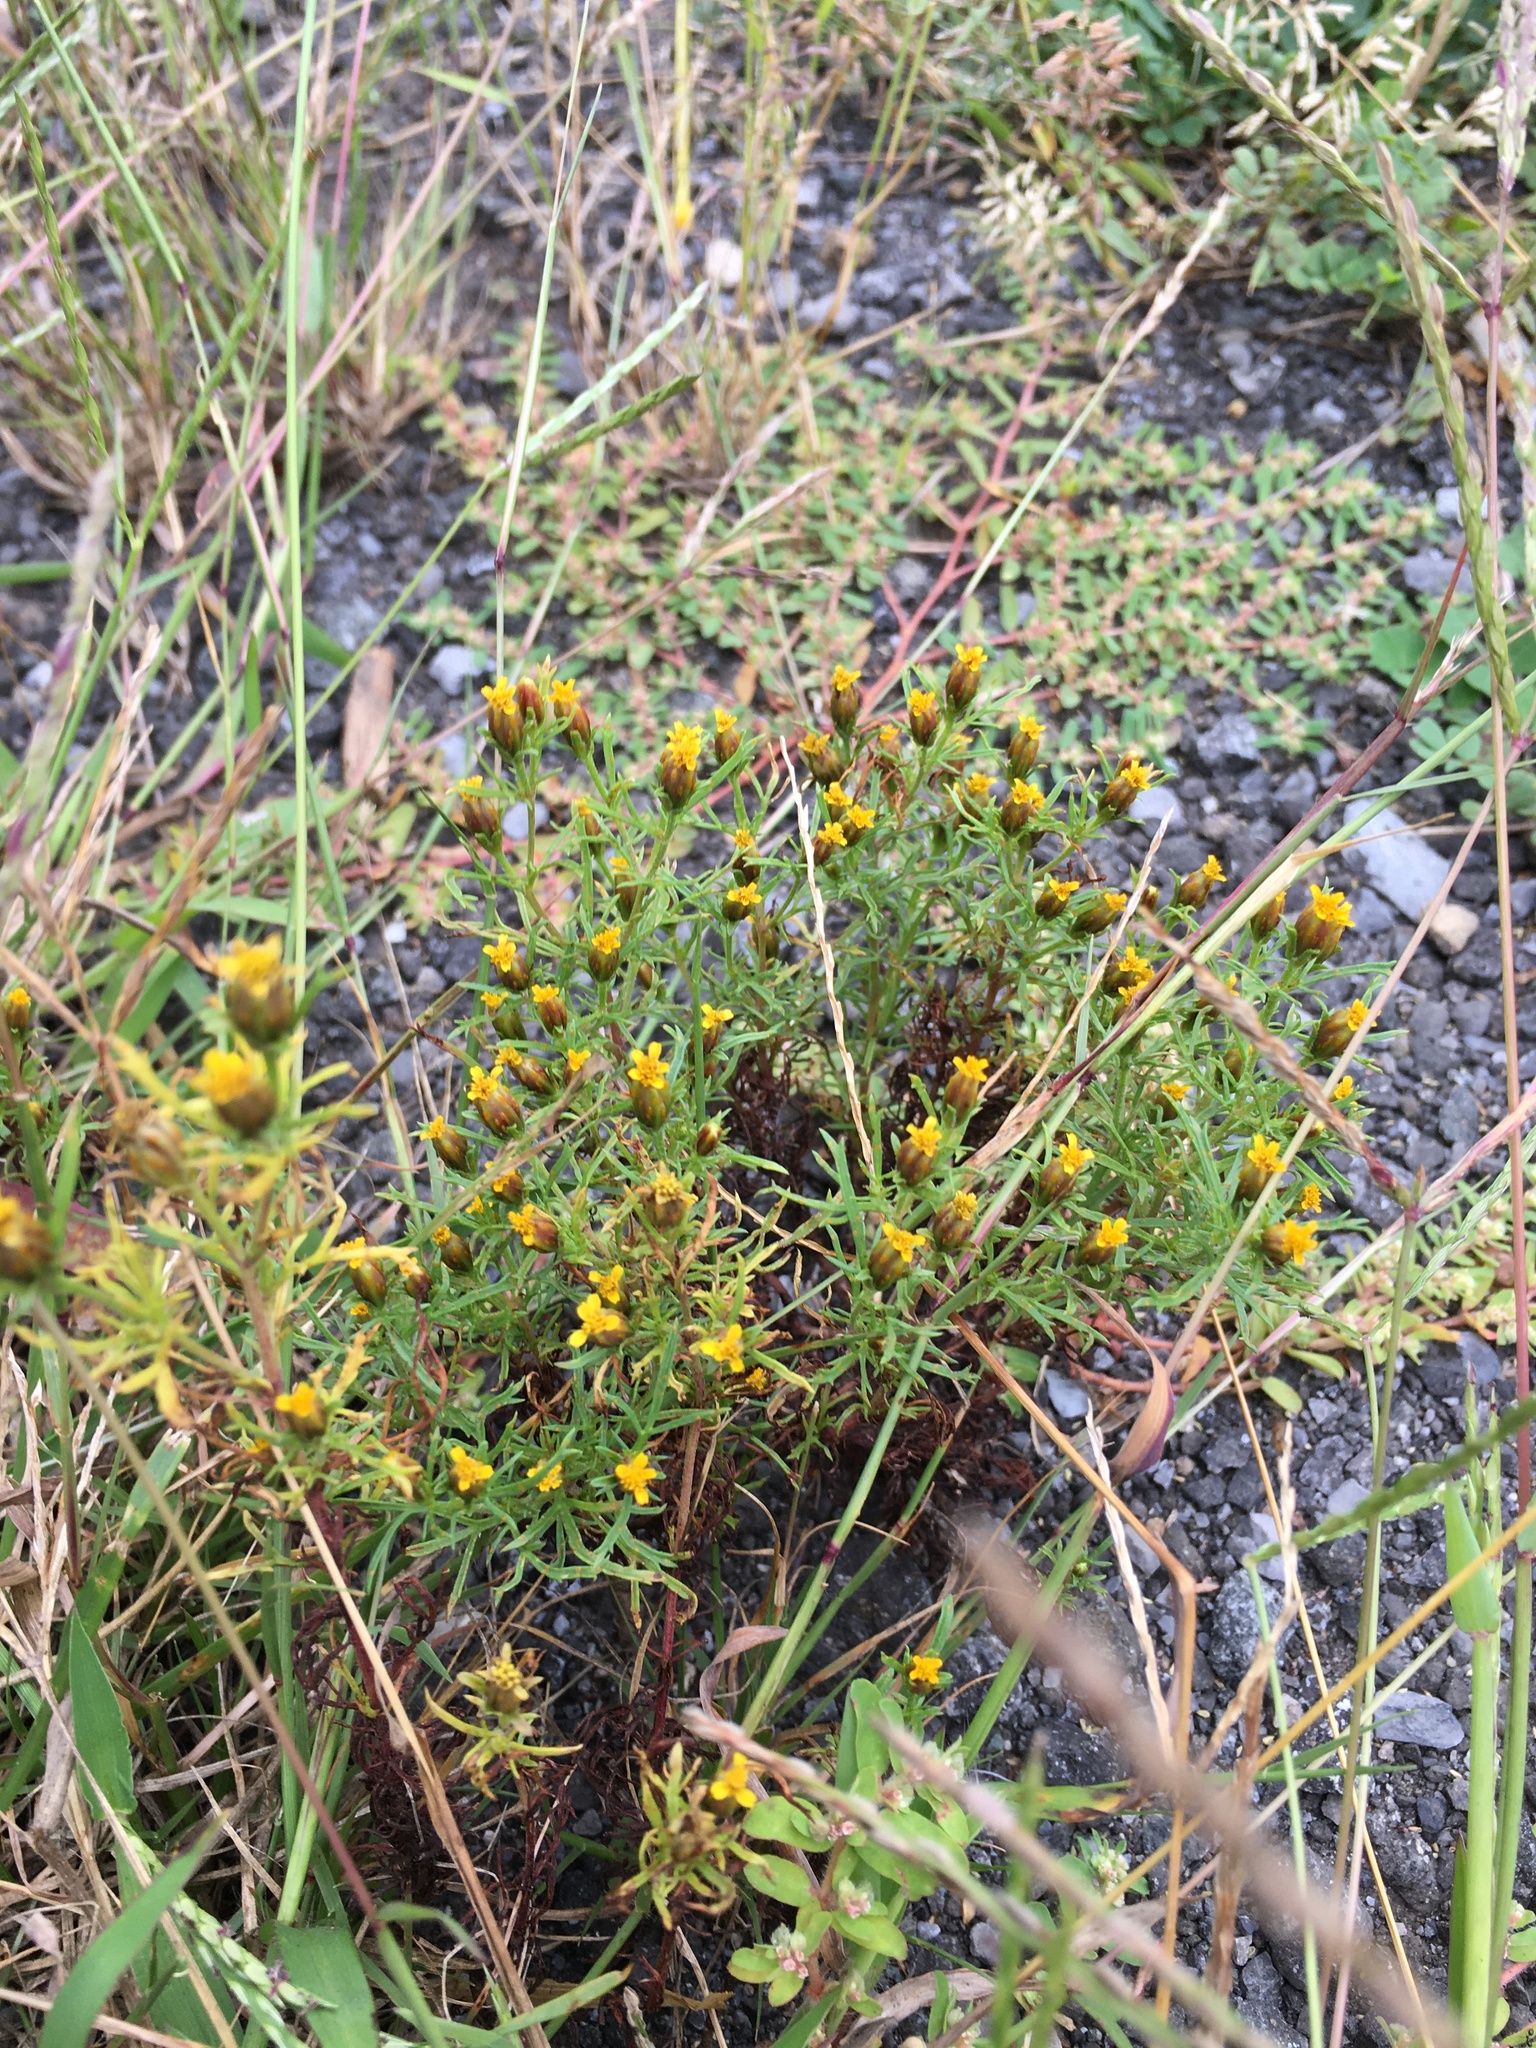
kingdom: Plantae
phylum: Tracheophyta
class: Magnoliopsida
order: Asterales
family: Asteraceae
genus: Dyssodia
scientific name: Dyssodia papposa
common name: Dogweed
